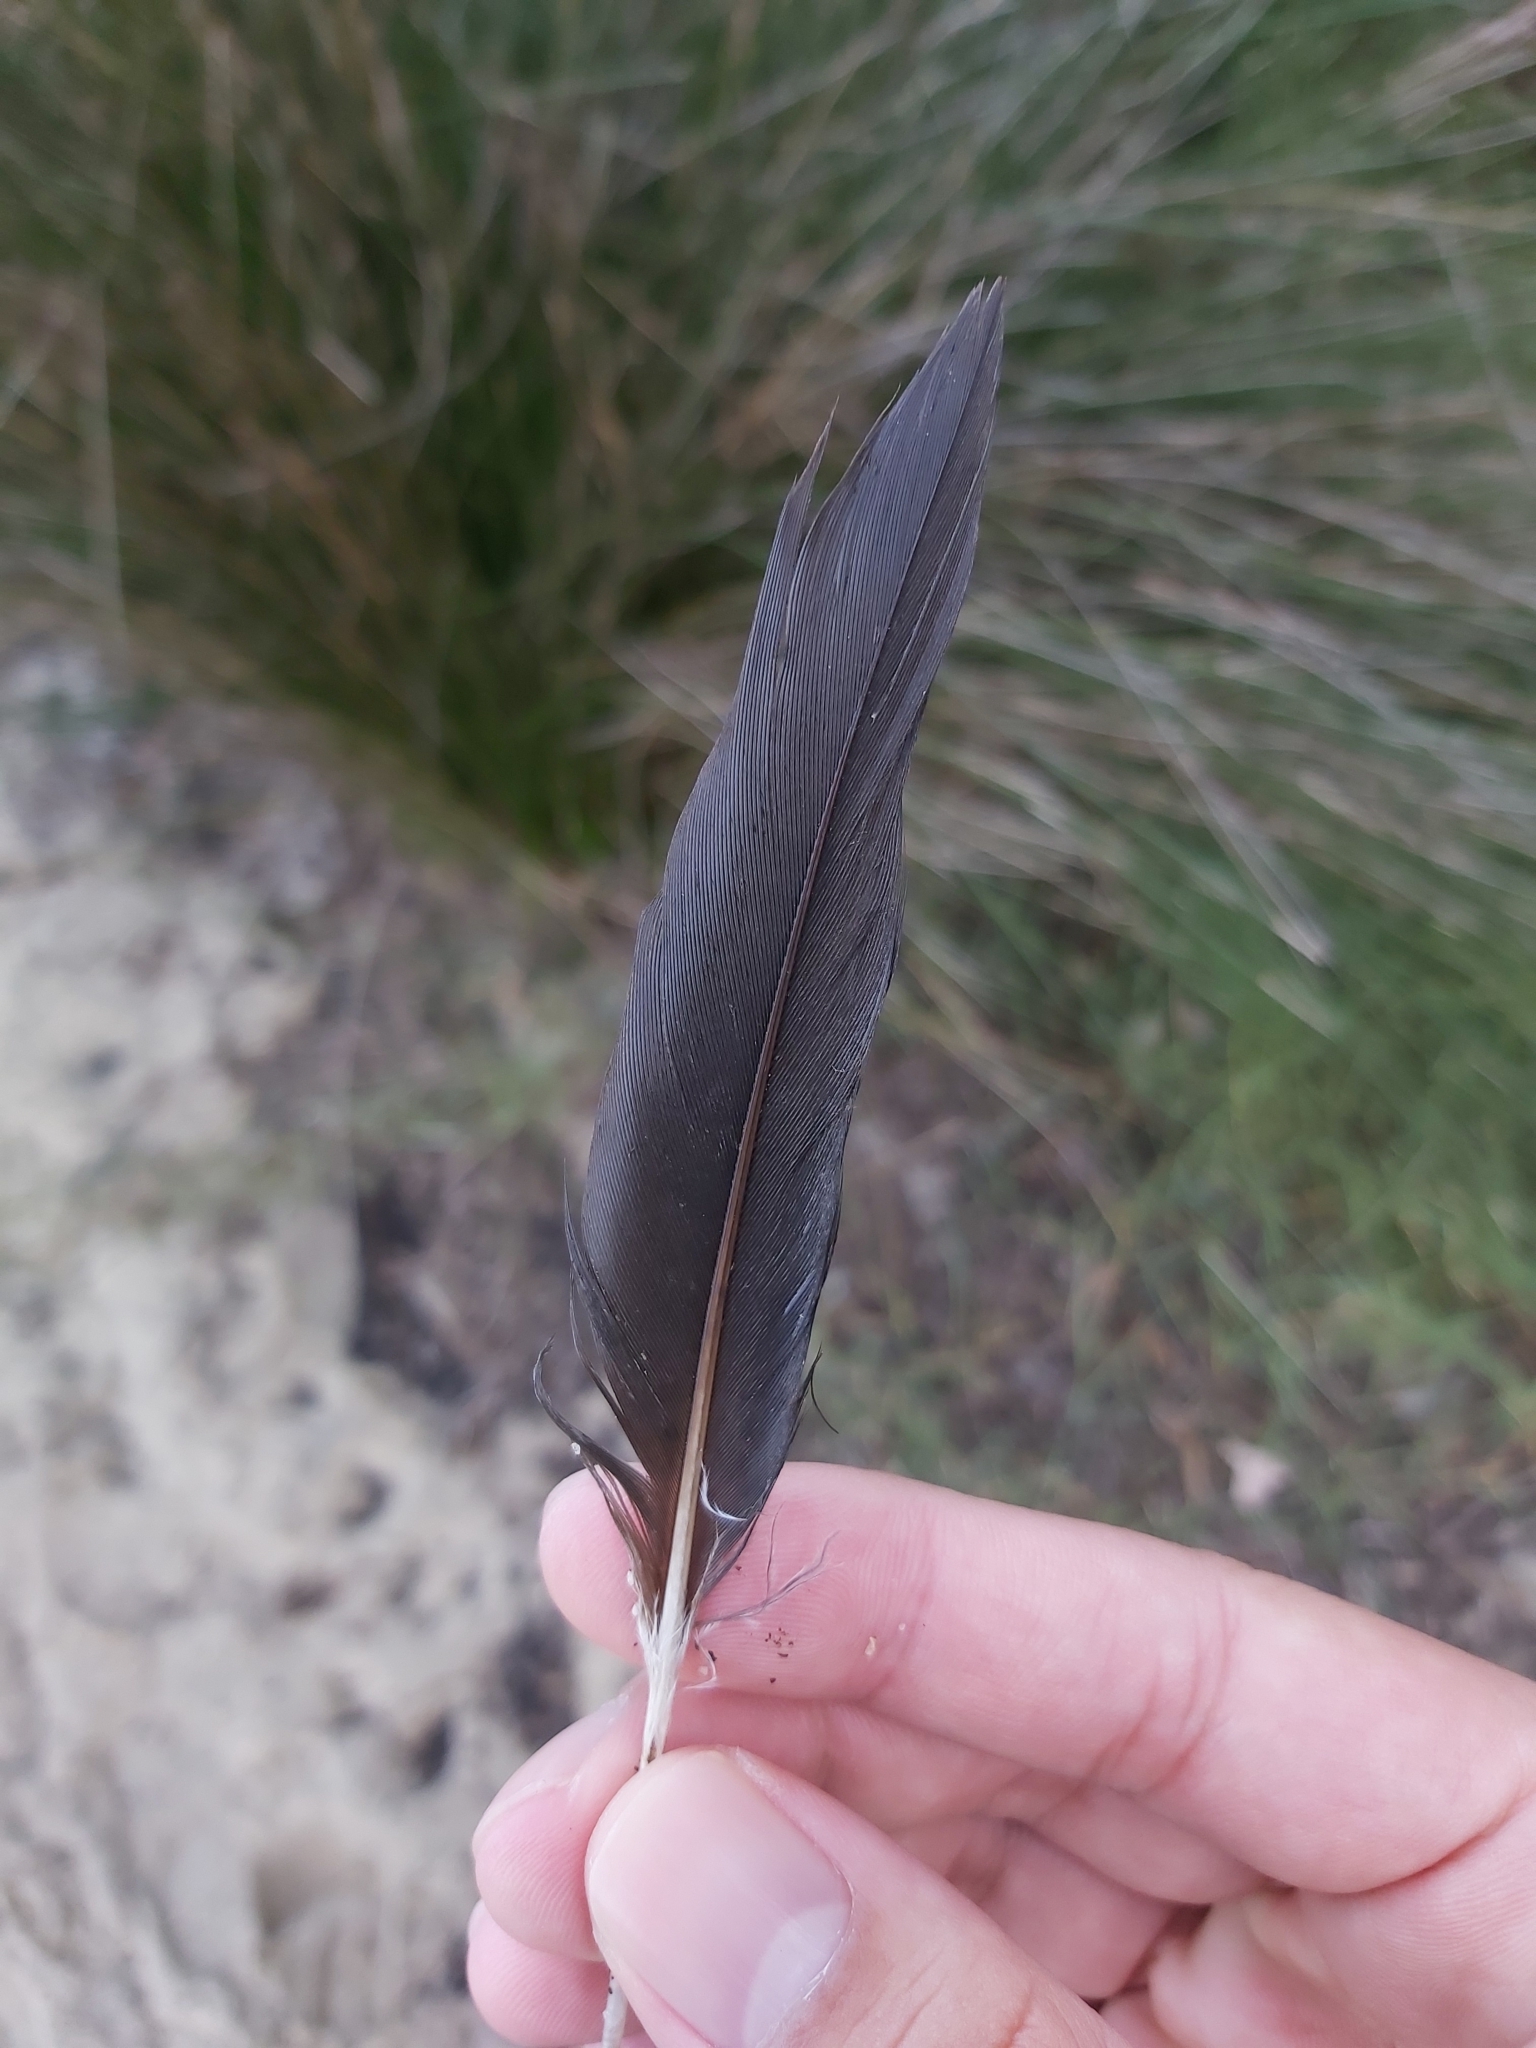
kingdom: Animalia
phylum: Chordata
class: Aves
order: Suliformes
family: Phalacrocoracidae
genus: Microcarbo
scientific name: Microcarbo melanoleucos
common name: Little pied cormorant
